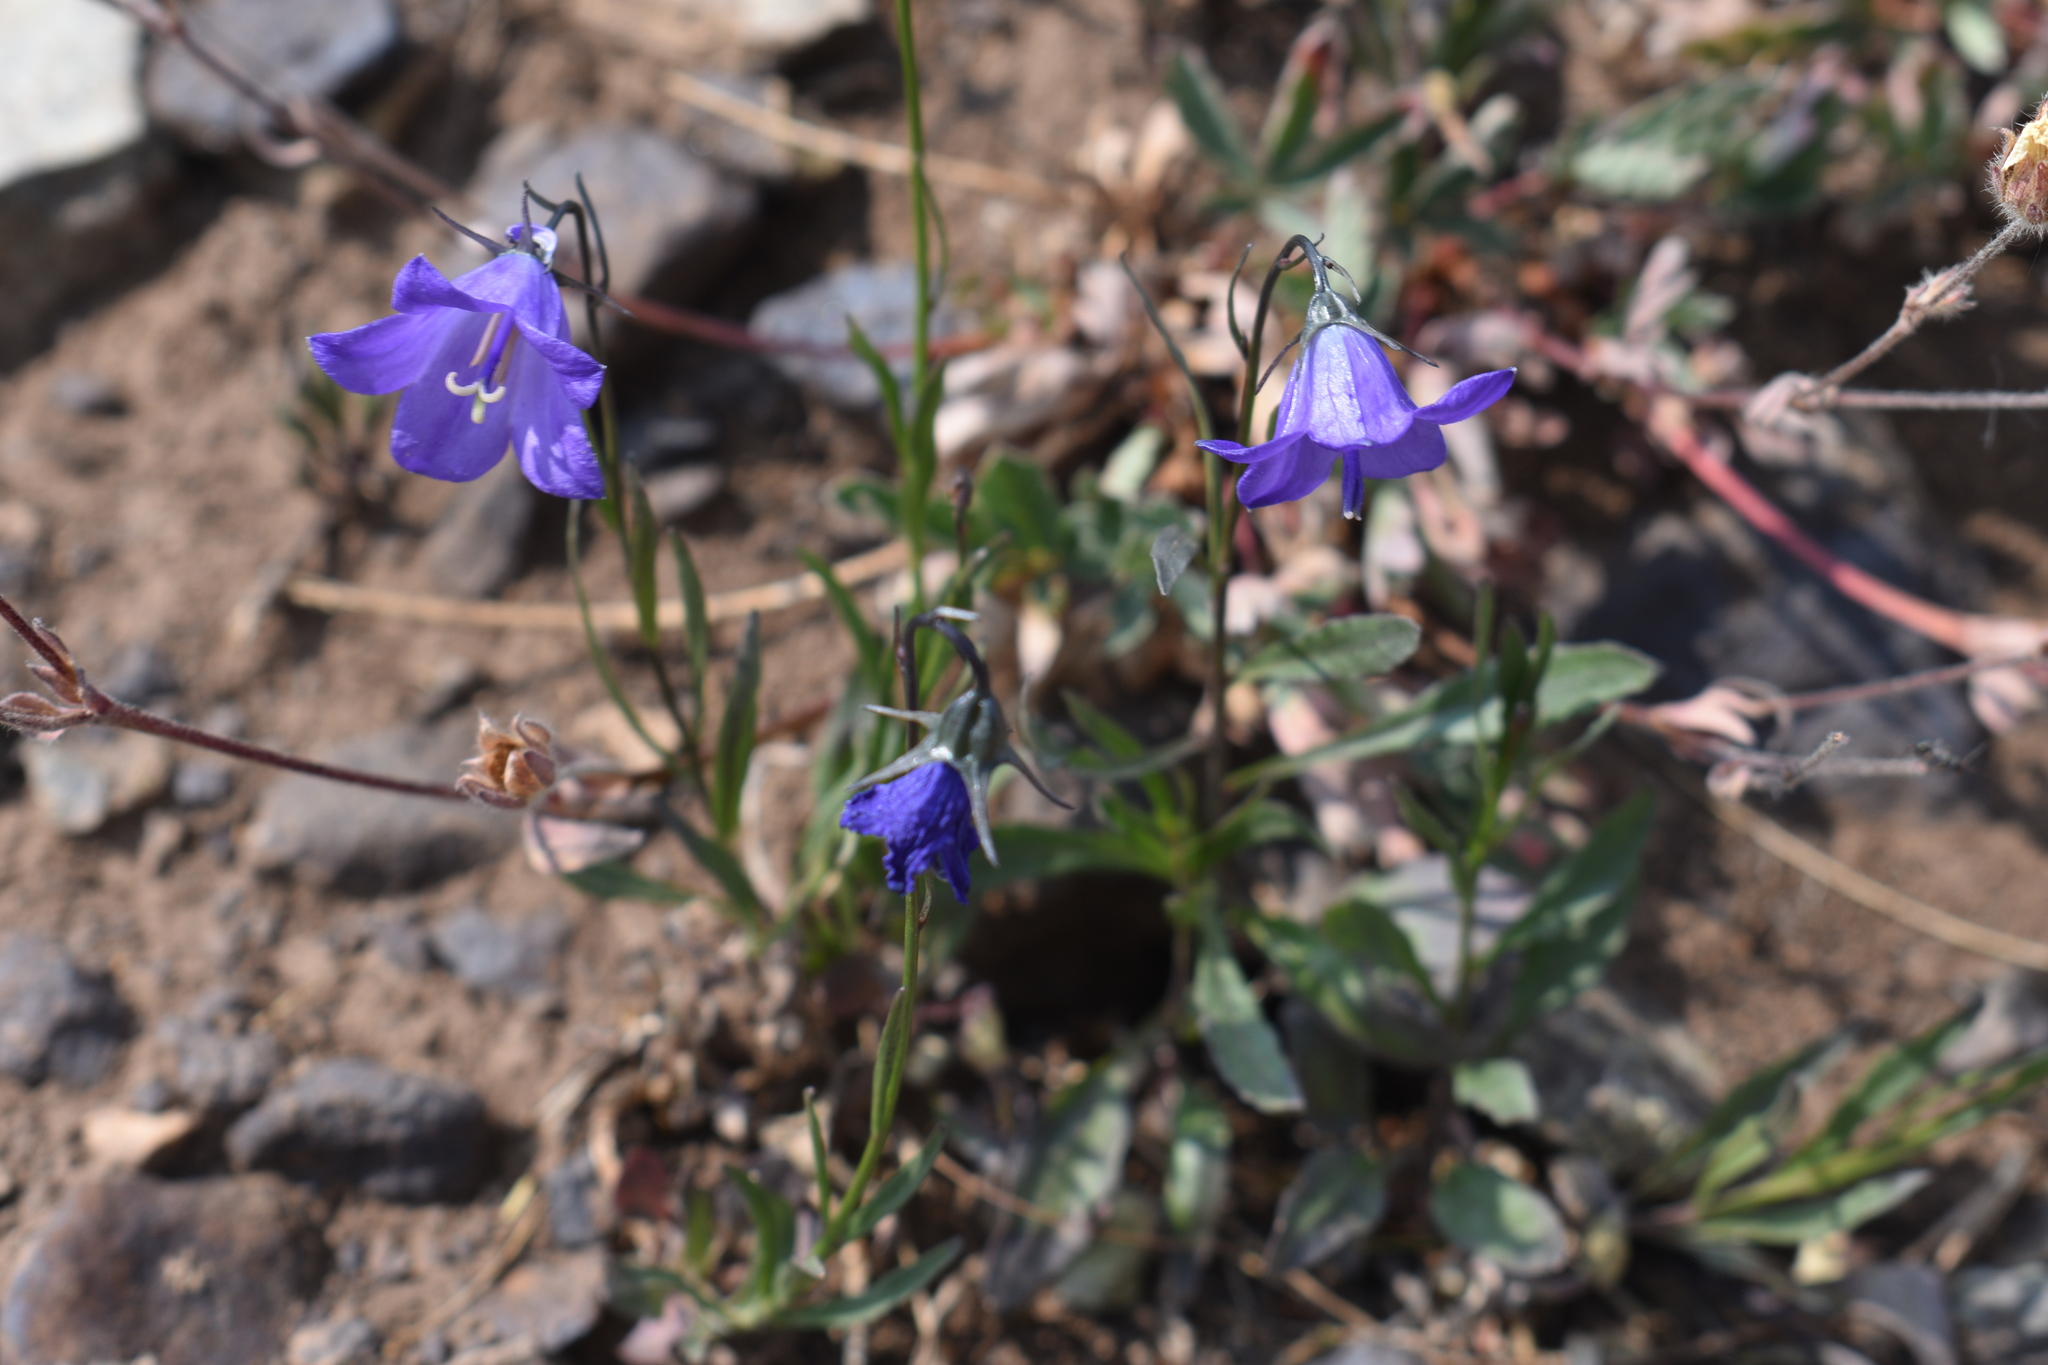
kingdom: Plantae
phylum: Tracheophyta
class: Magnoliopsida
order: Asterales
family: Campanulaceae
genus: Campanula
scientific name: Campanula petiolata
